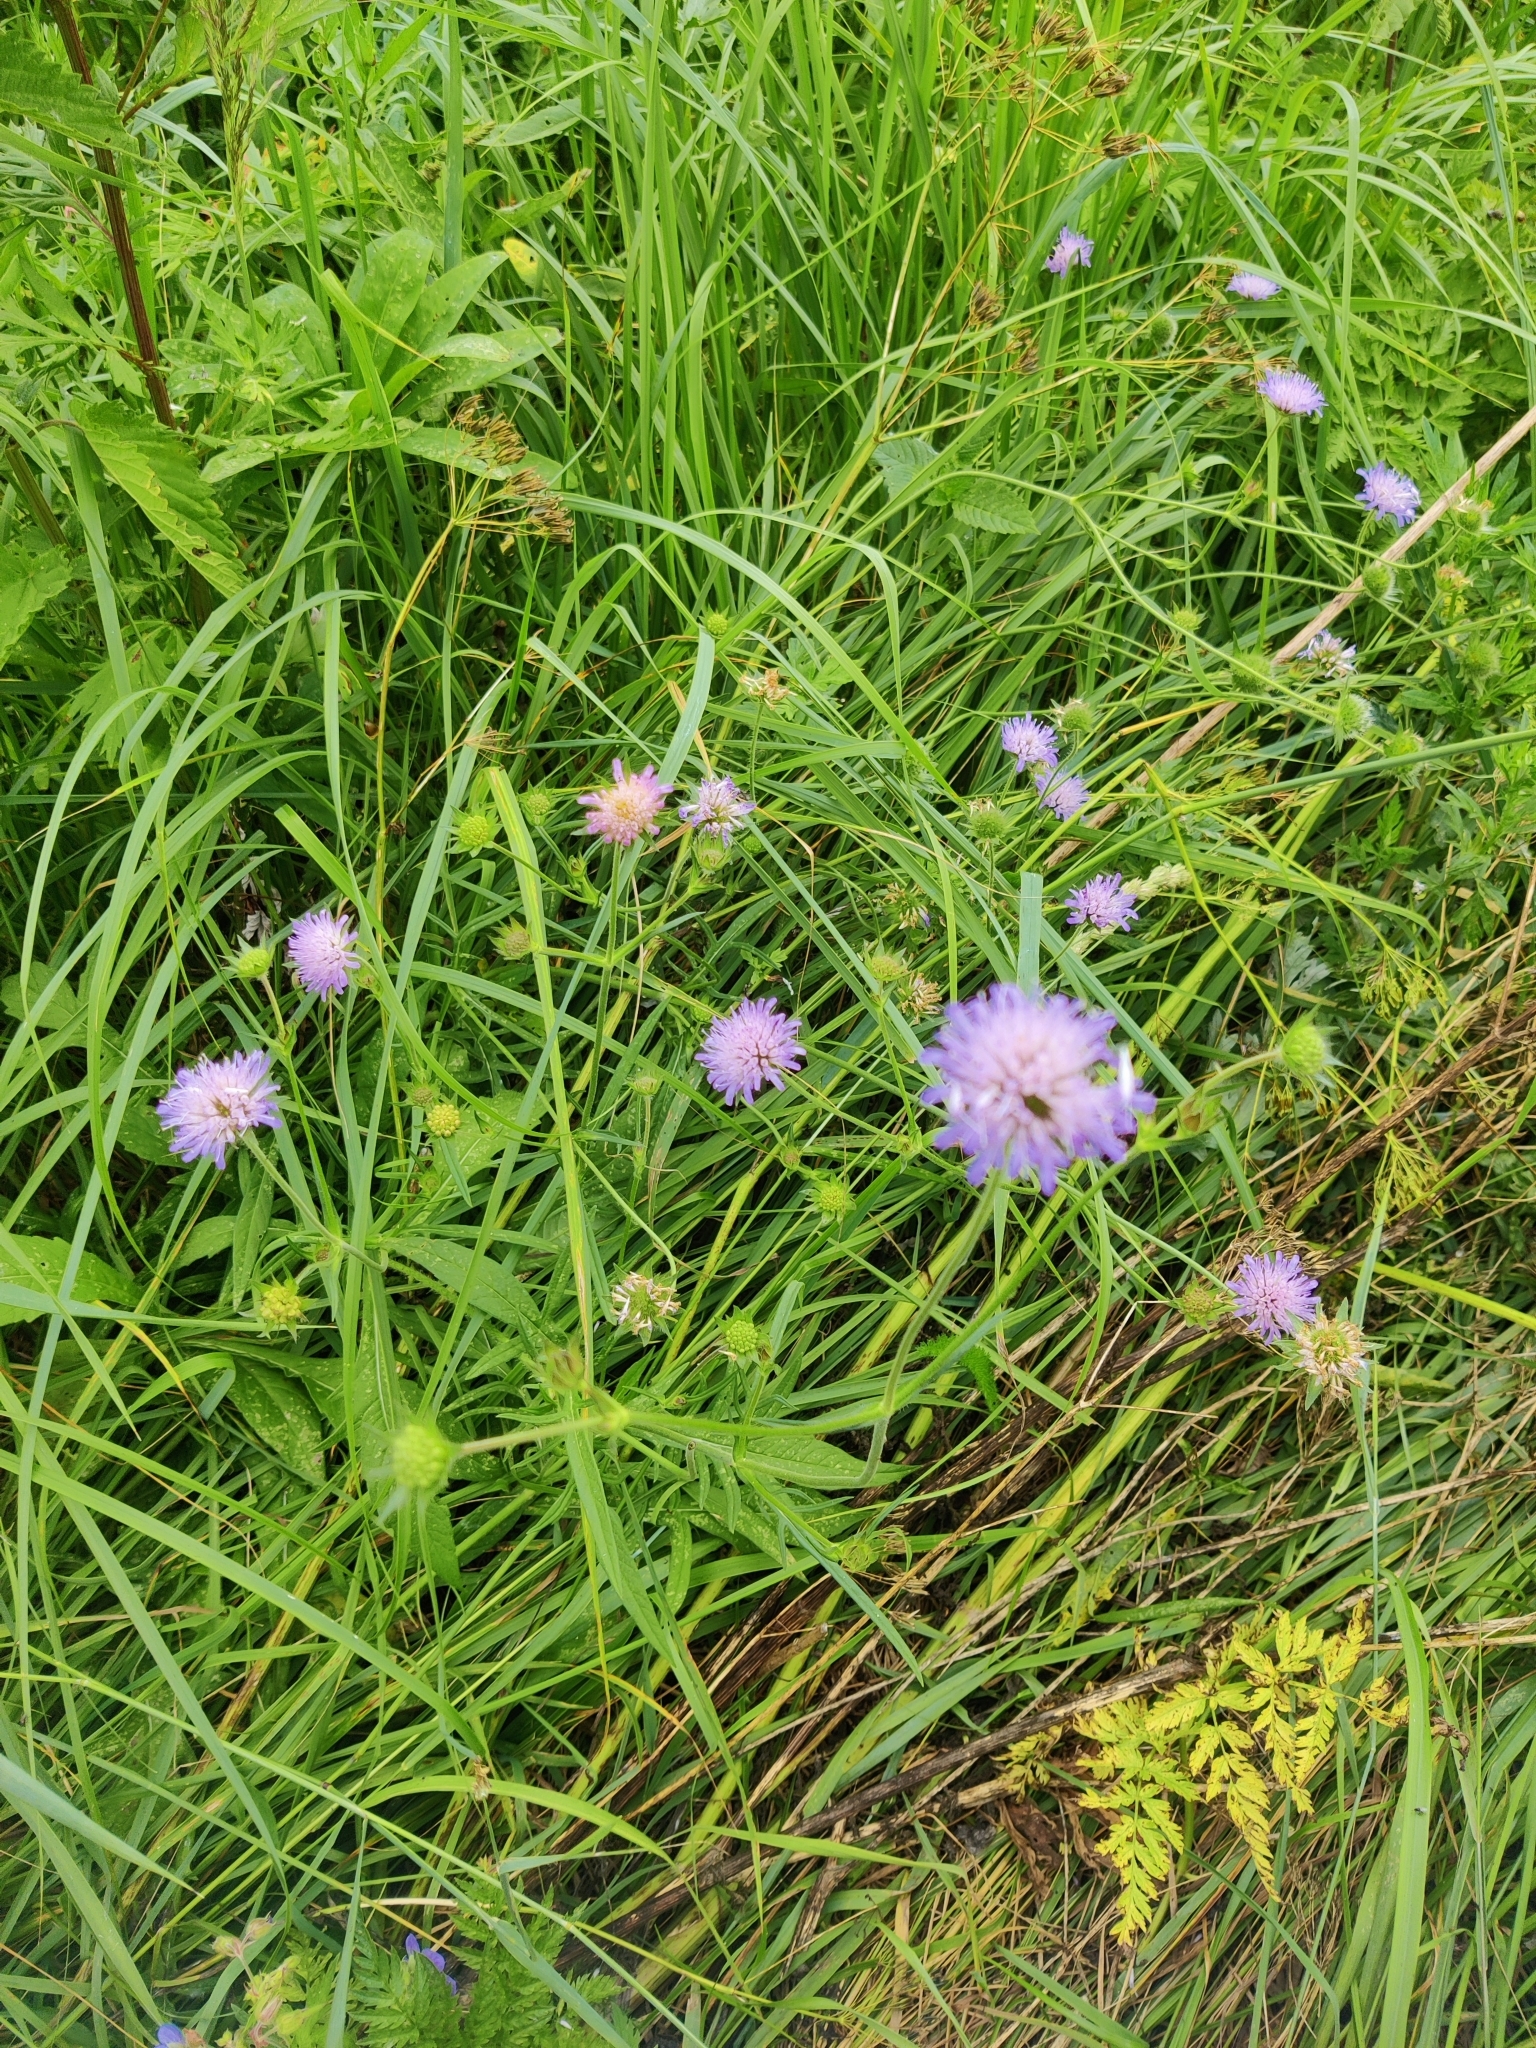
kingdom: Plantae
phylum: Tracheophyta
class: Magnoliopsida
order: Dipsacales
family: Caprifoliaceae
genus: Knautia
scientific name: Knautia arvensis
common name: Field scabiosa
